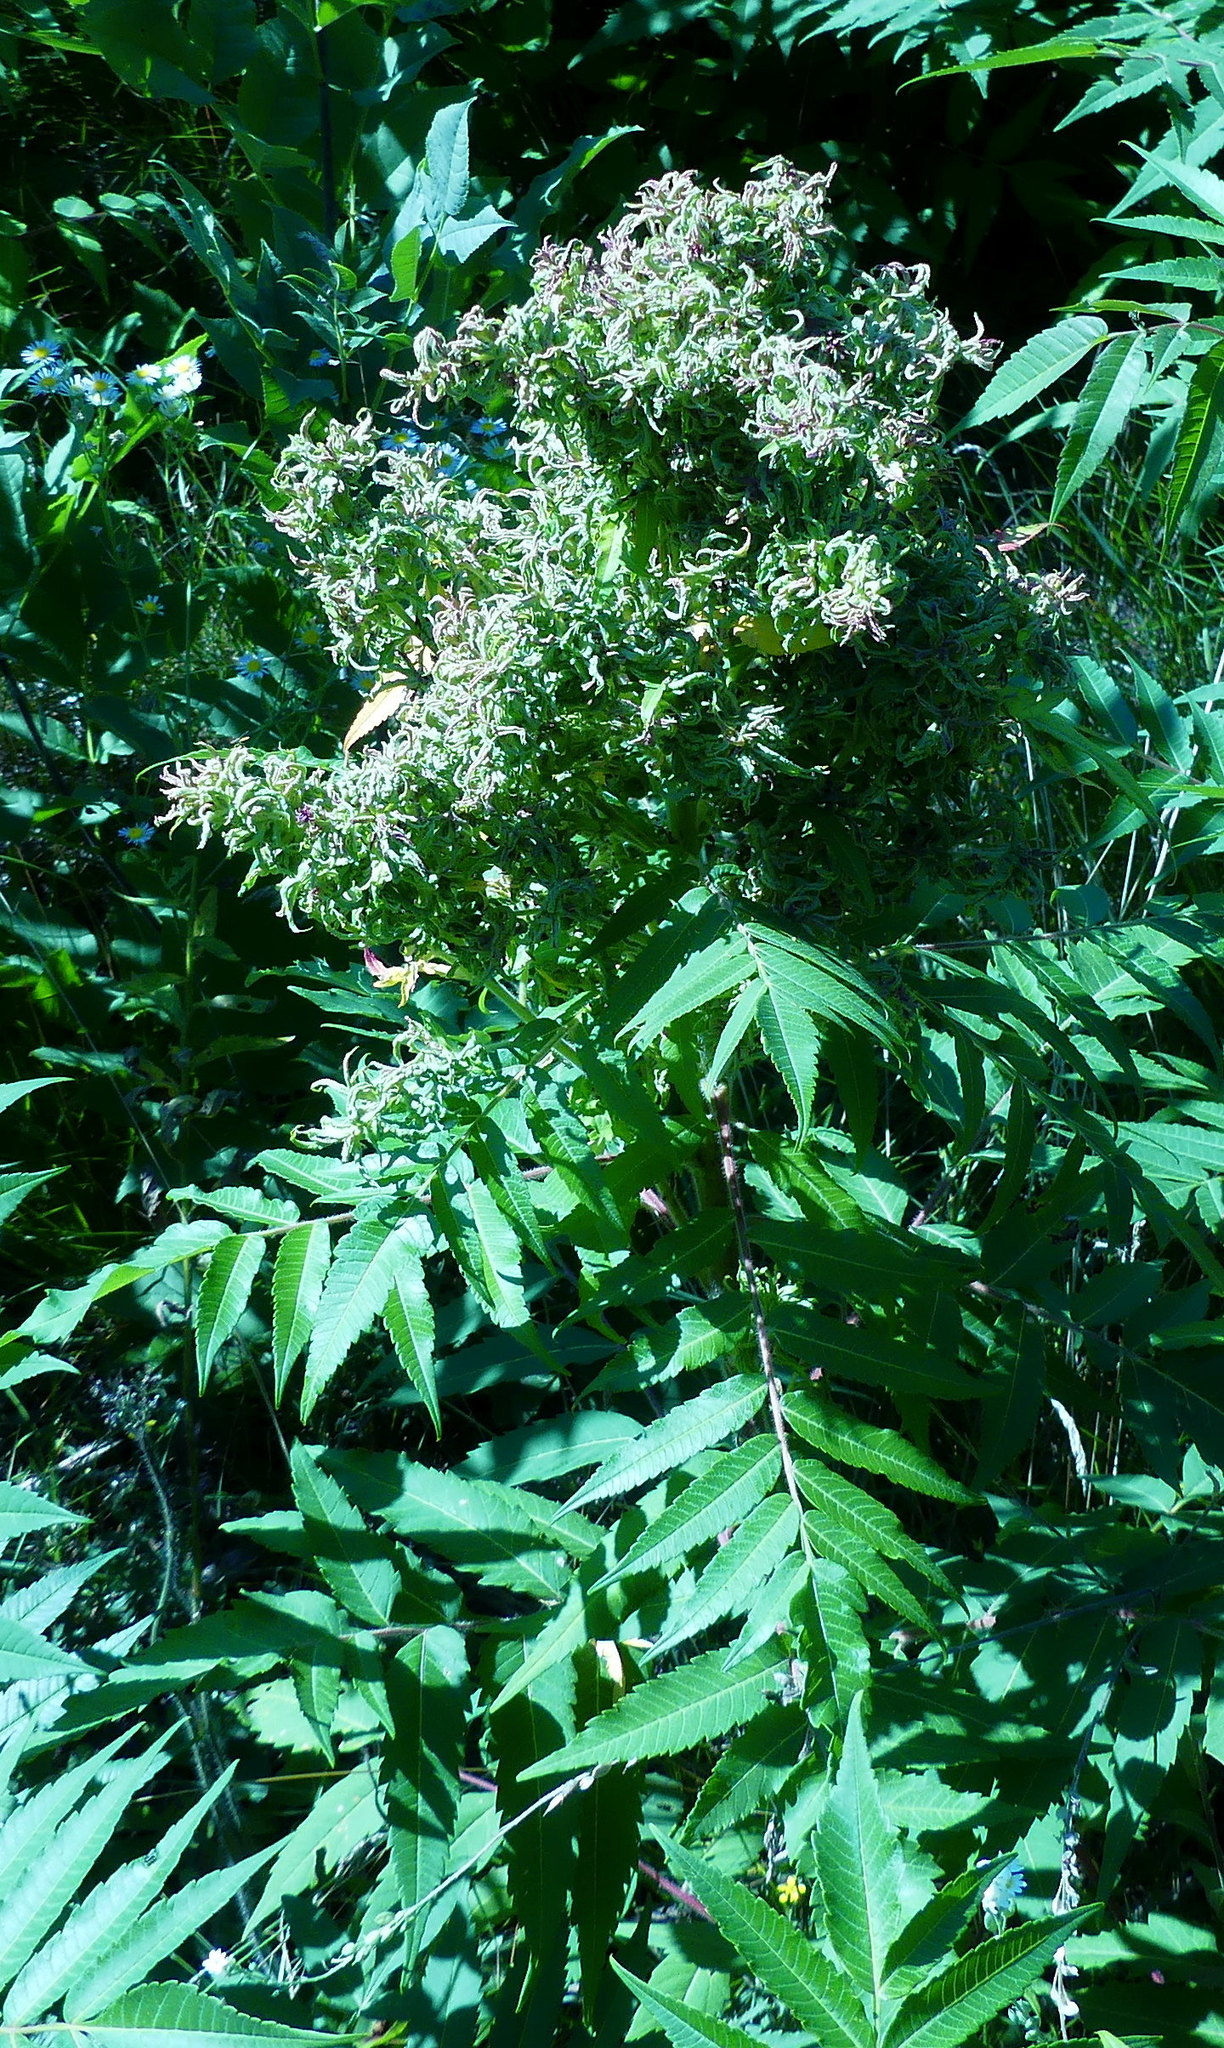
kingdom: Plantae
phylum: Tracheophyta
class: Magnoliopsida
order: Sapindales
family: Anacardiaceae
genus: Rhus
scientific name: Rhus typhina
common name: Staghorn sumac
